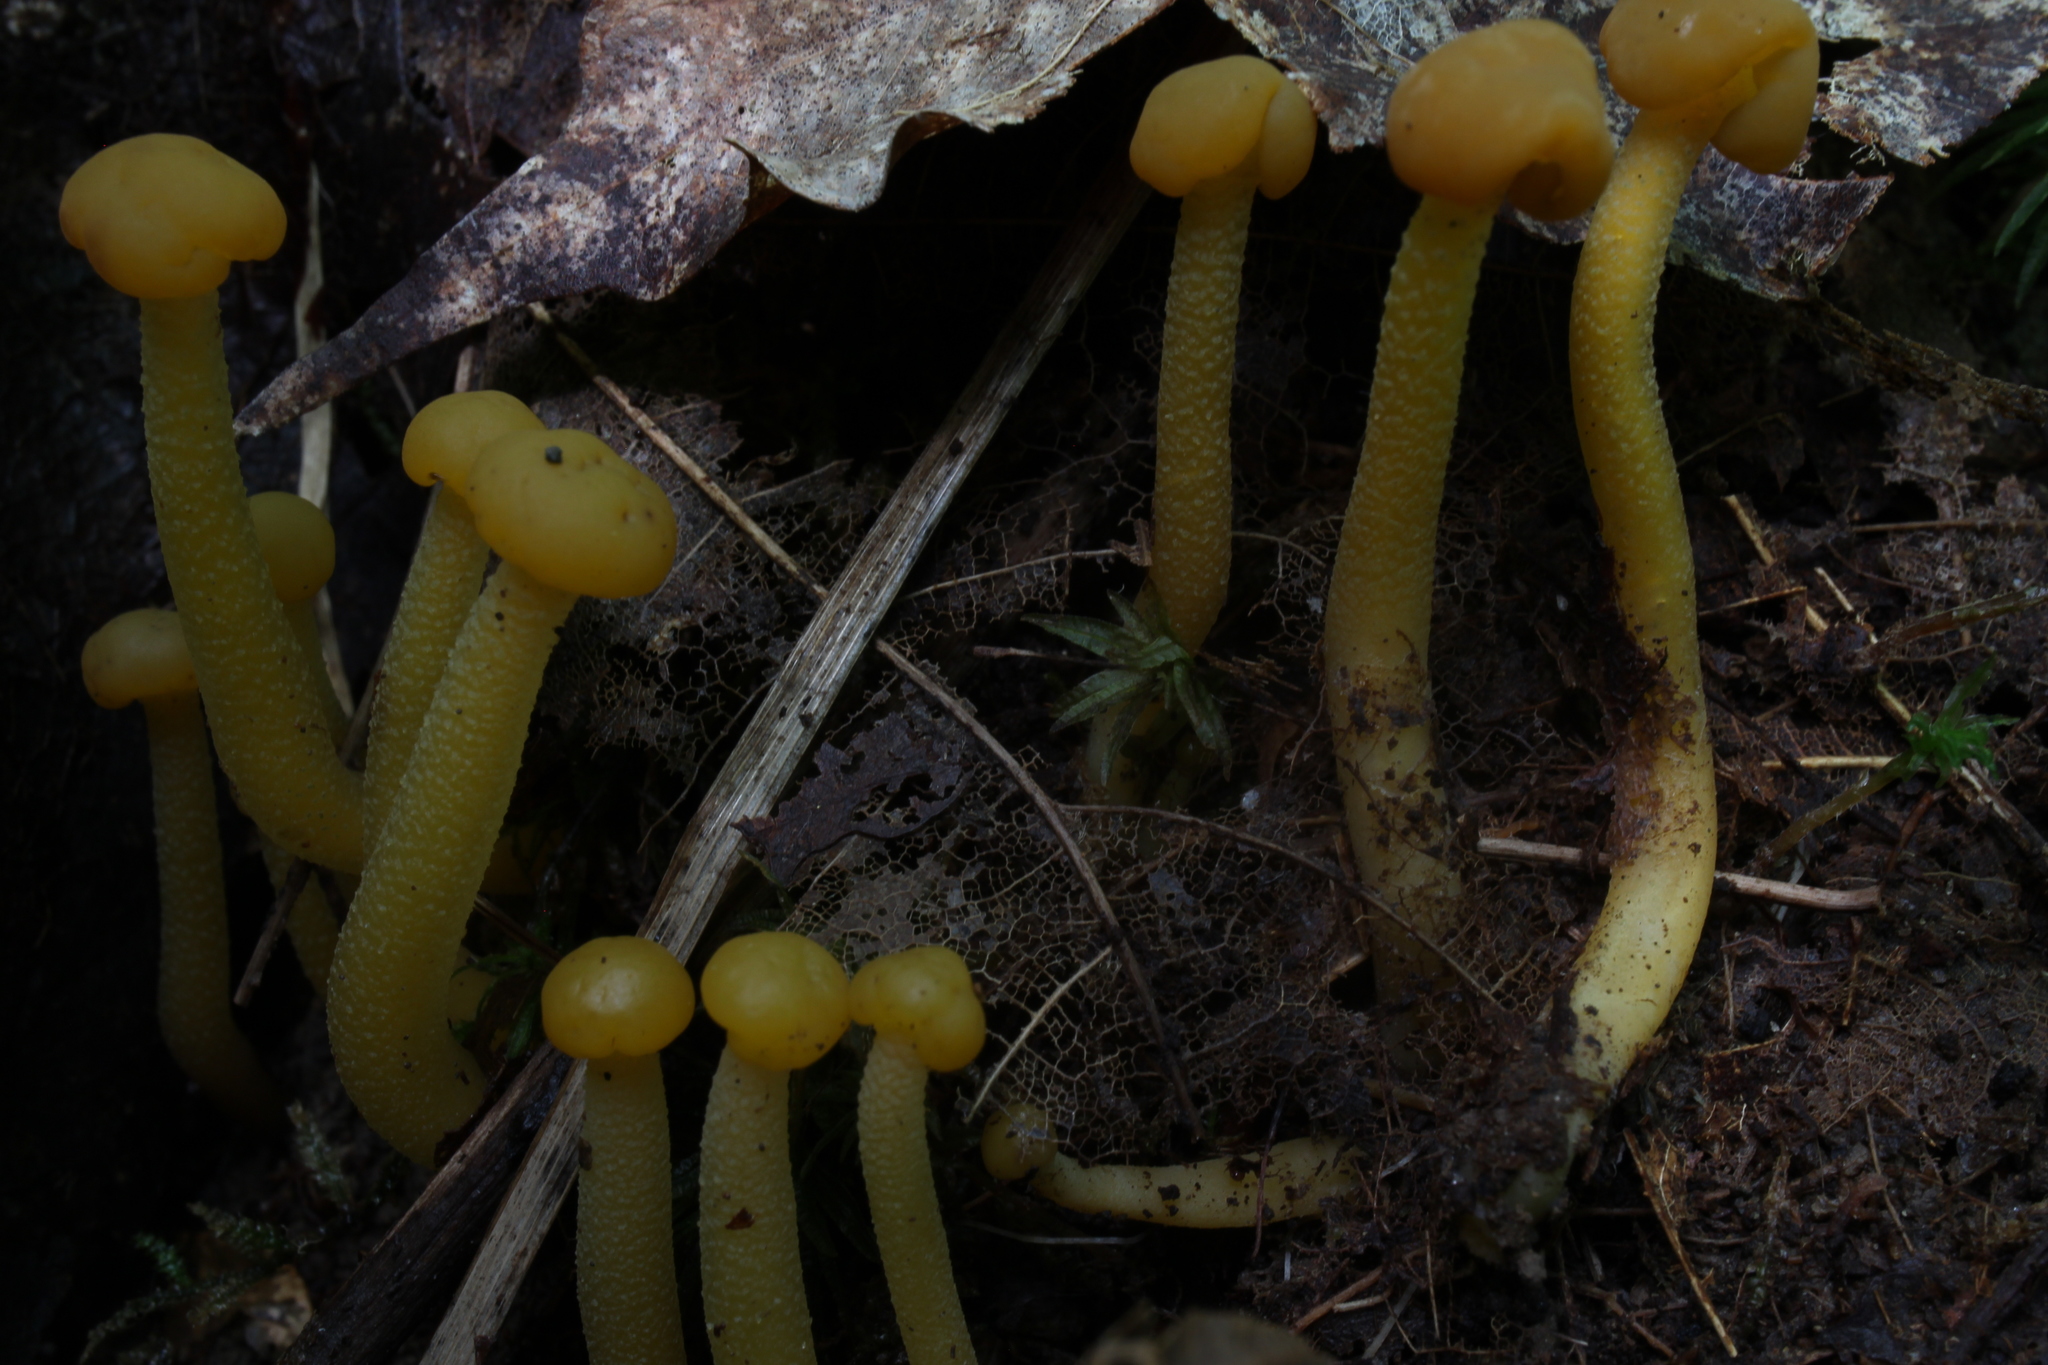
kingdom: Fungi
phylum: Ascomycota
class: Leotiomycetes
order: Leotiales
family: Leotiaceae
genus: Leotia
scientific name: Leotia lubrica
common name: Jellybaby
